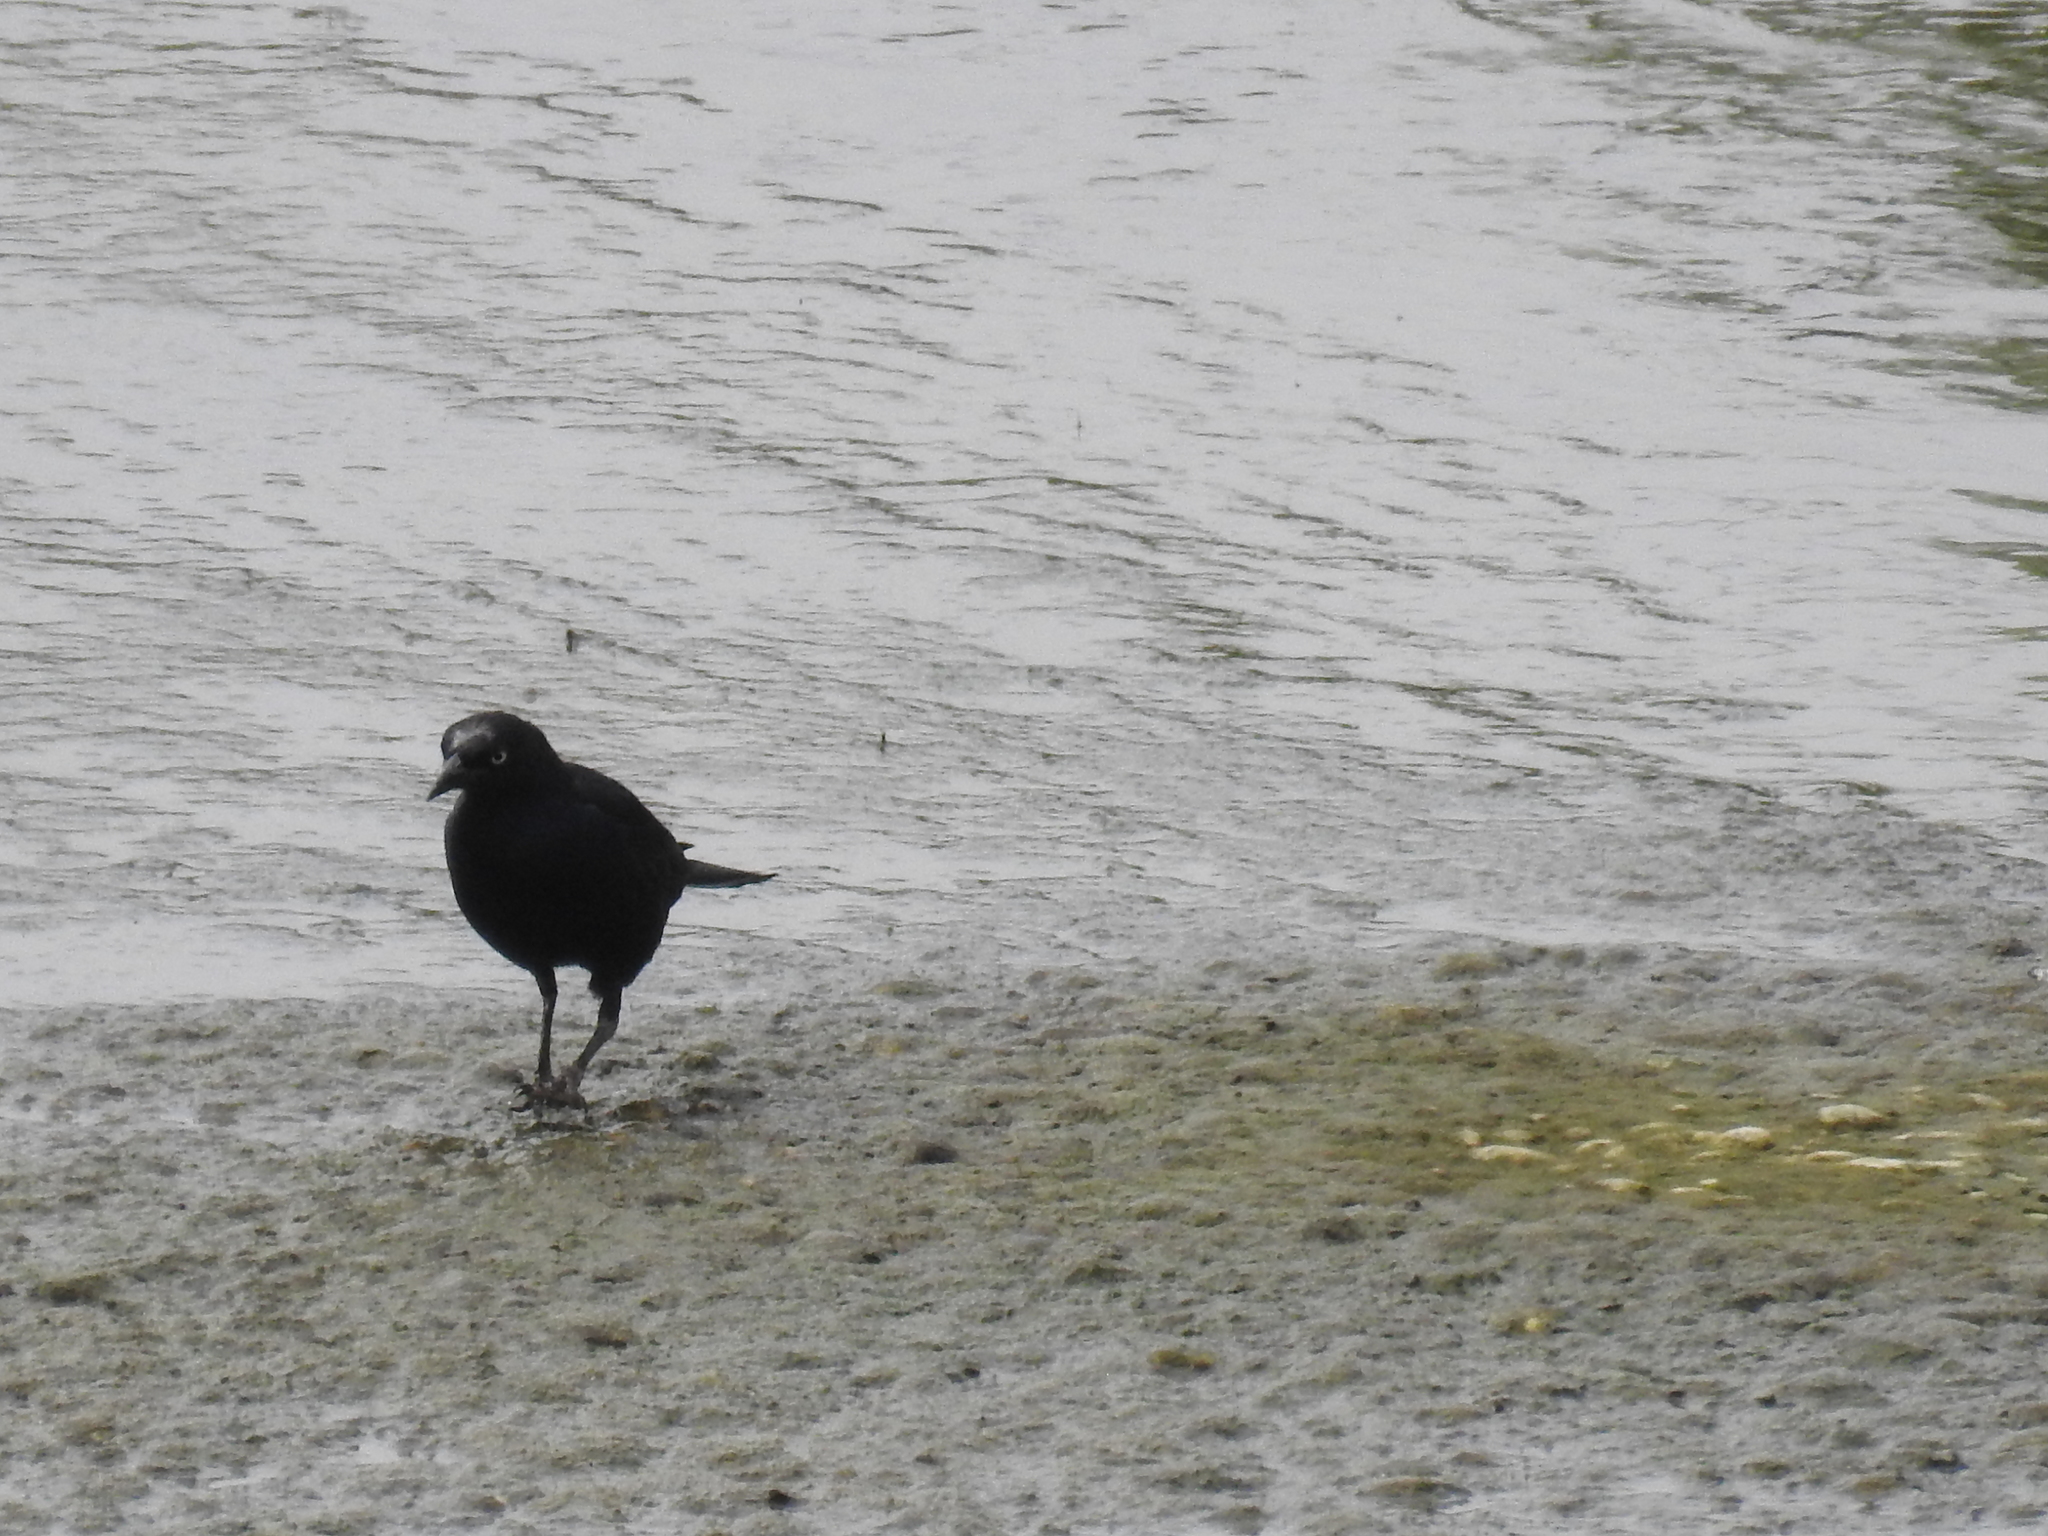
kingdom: Animalia
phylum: Chordata
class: Aves
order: Passeriformes
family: Icteridae
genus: Euphagus
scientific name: Euphagus cyanocephalus
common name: Brewer's blackbird
